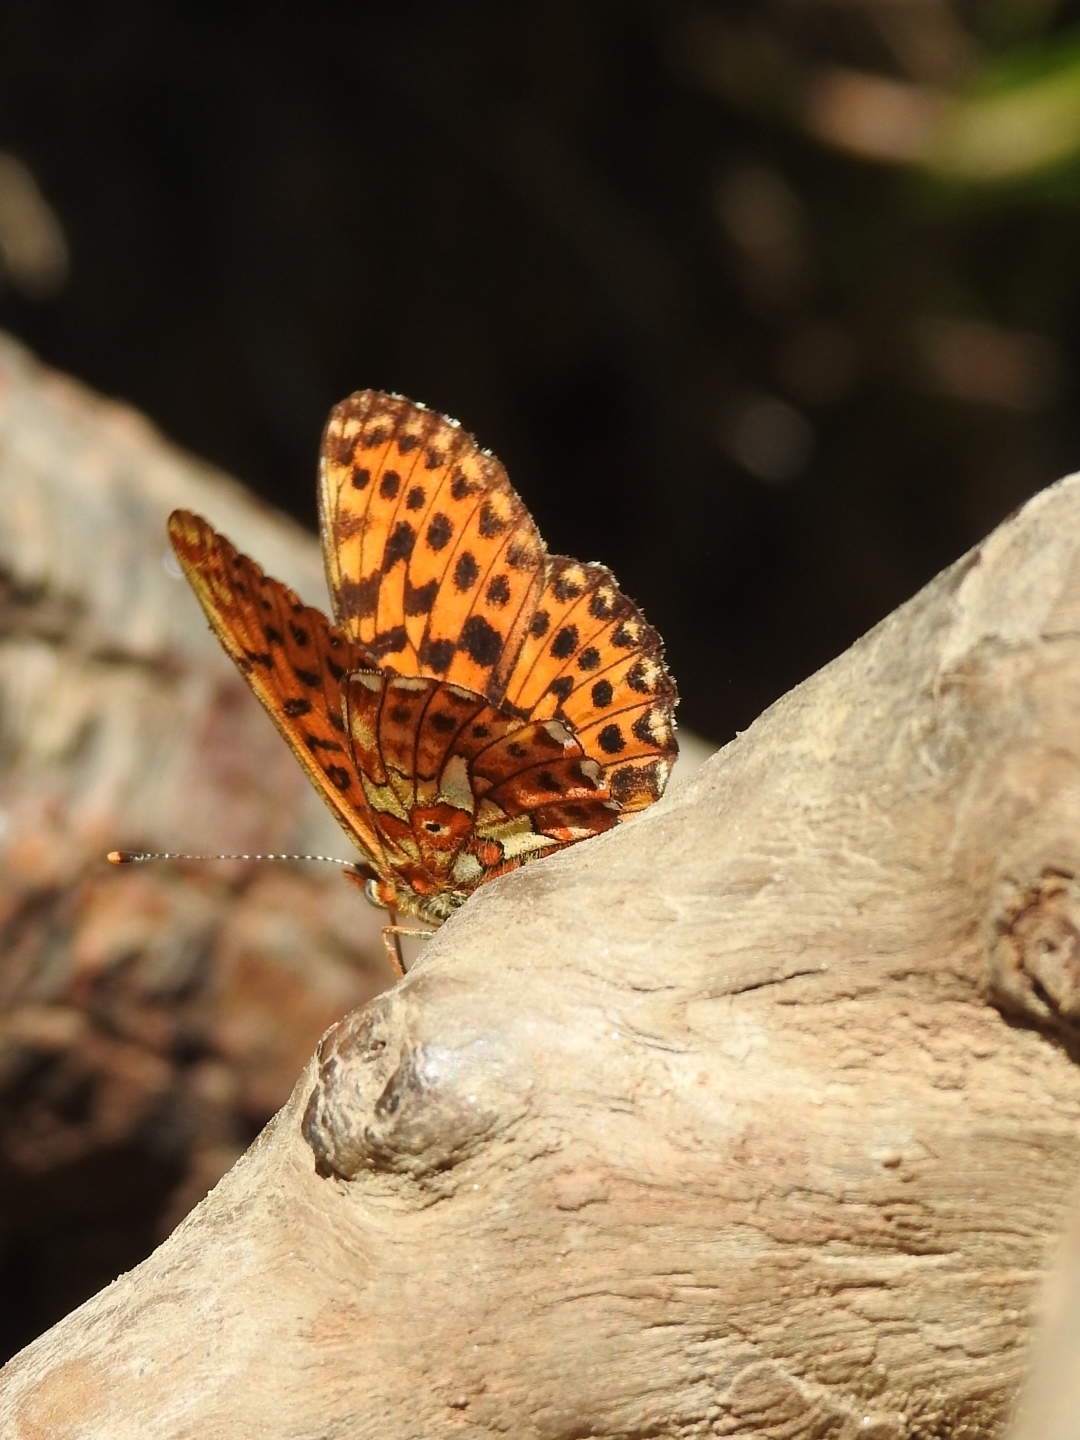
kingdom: Animalia
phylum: Arthropoda
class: Insecta
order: Lepidoptera
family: Nymphalidae
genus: Clossiana
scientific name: Clossiana euphrosyne
